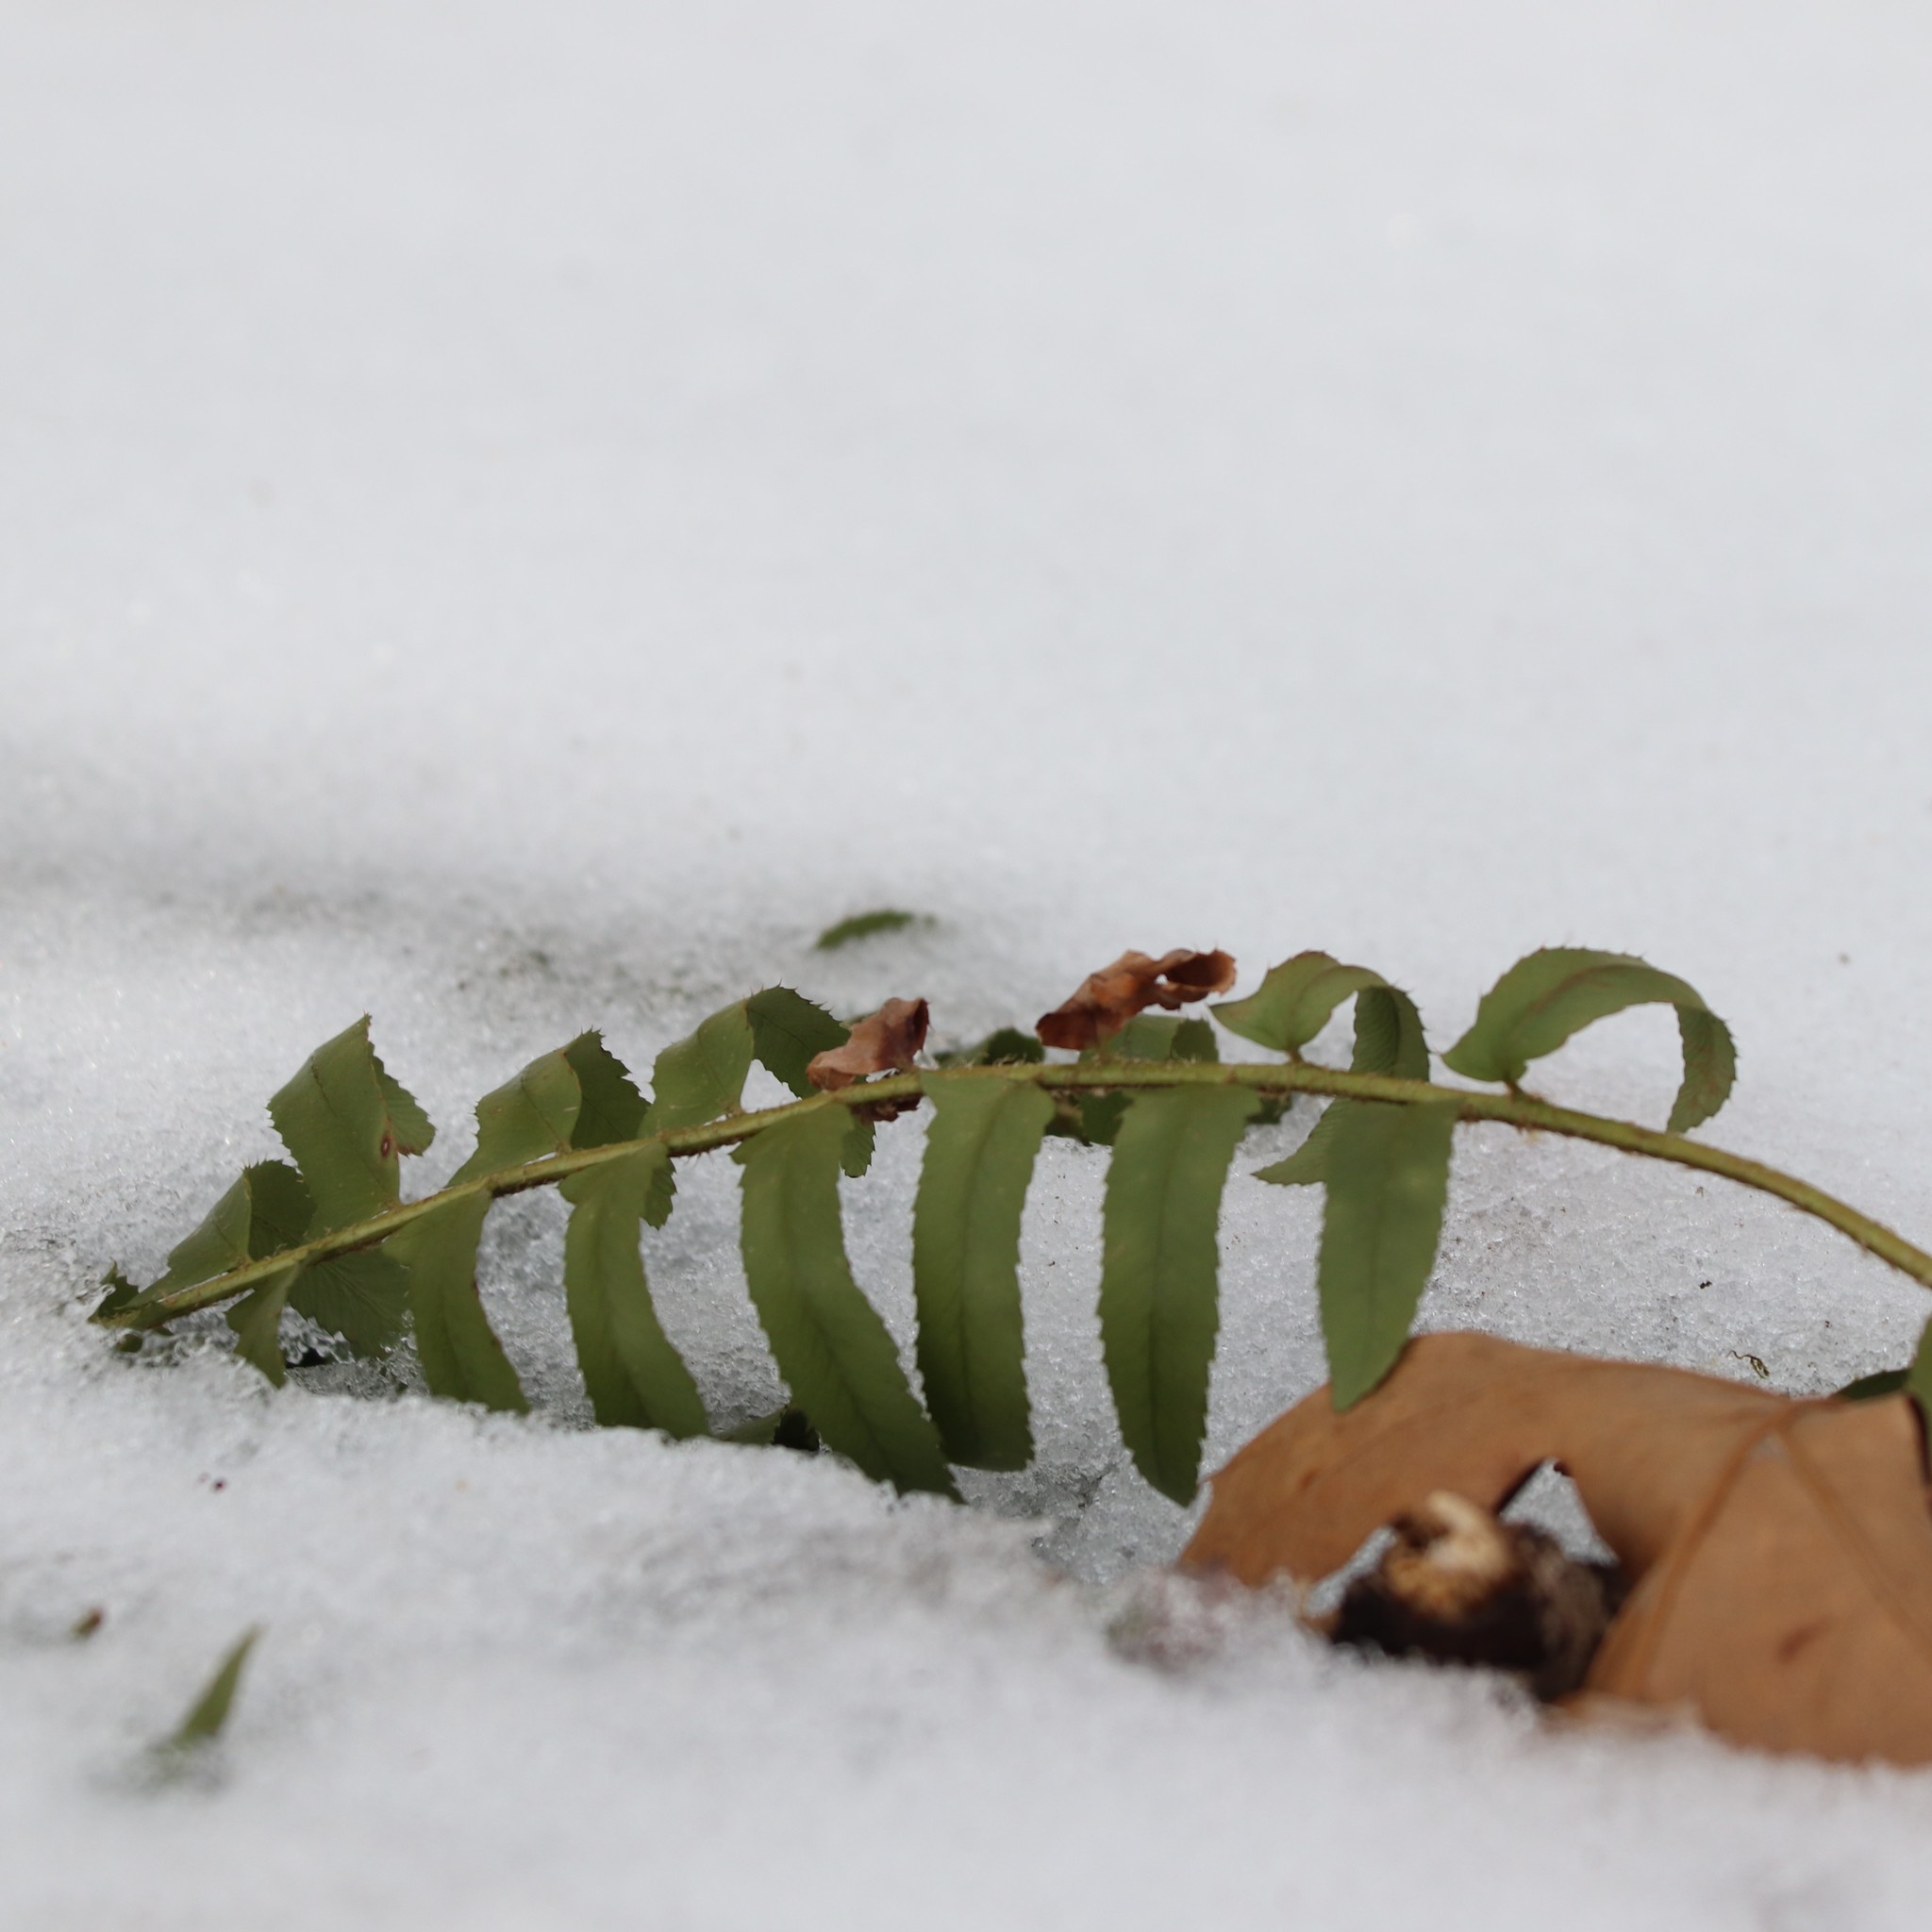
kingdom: Plantae
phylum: Tracheophyta
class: Polypodiopsida
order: Polypodiales
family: Dryopteridaceae
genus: Polystichum
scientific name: Polystichum acrostichoides
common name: Christmas fern
